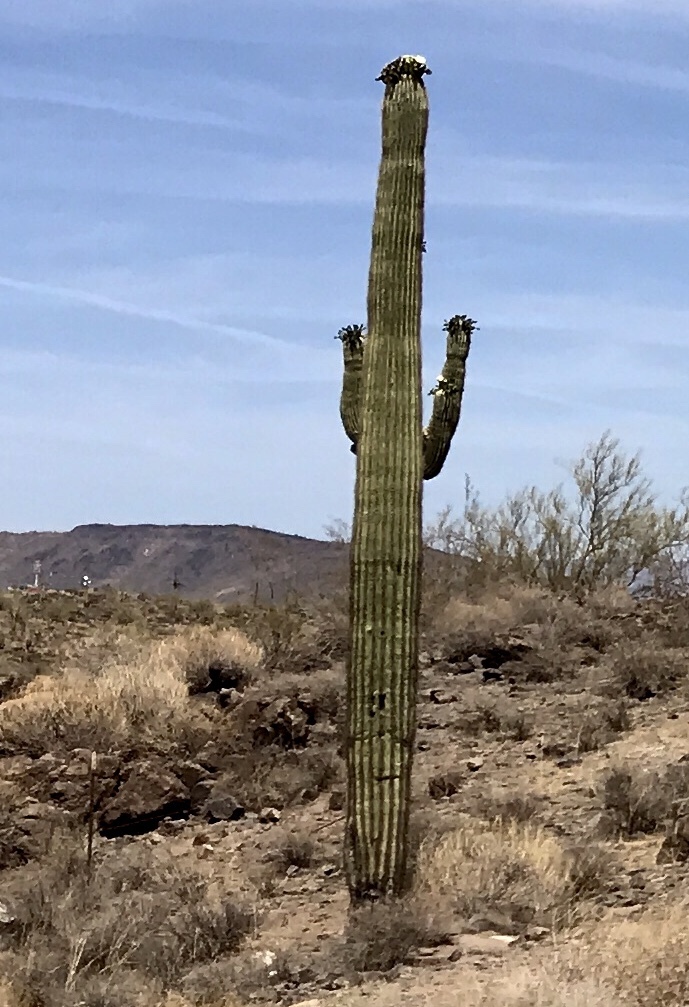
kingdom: Plantae
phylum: Tracheophyta
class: Magnoliopsida
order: Caryophyllales
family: Cactaceae
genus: Carnegiea
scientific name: Carnegiea gigantea
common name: Saguaro
